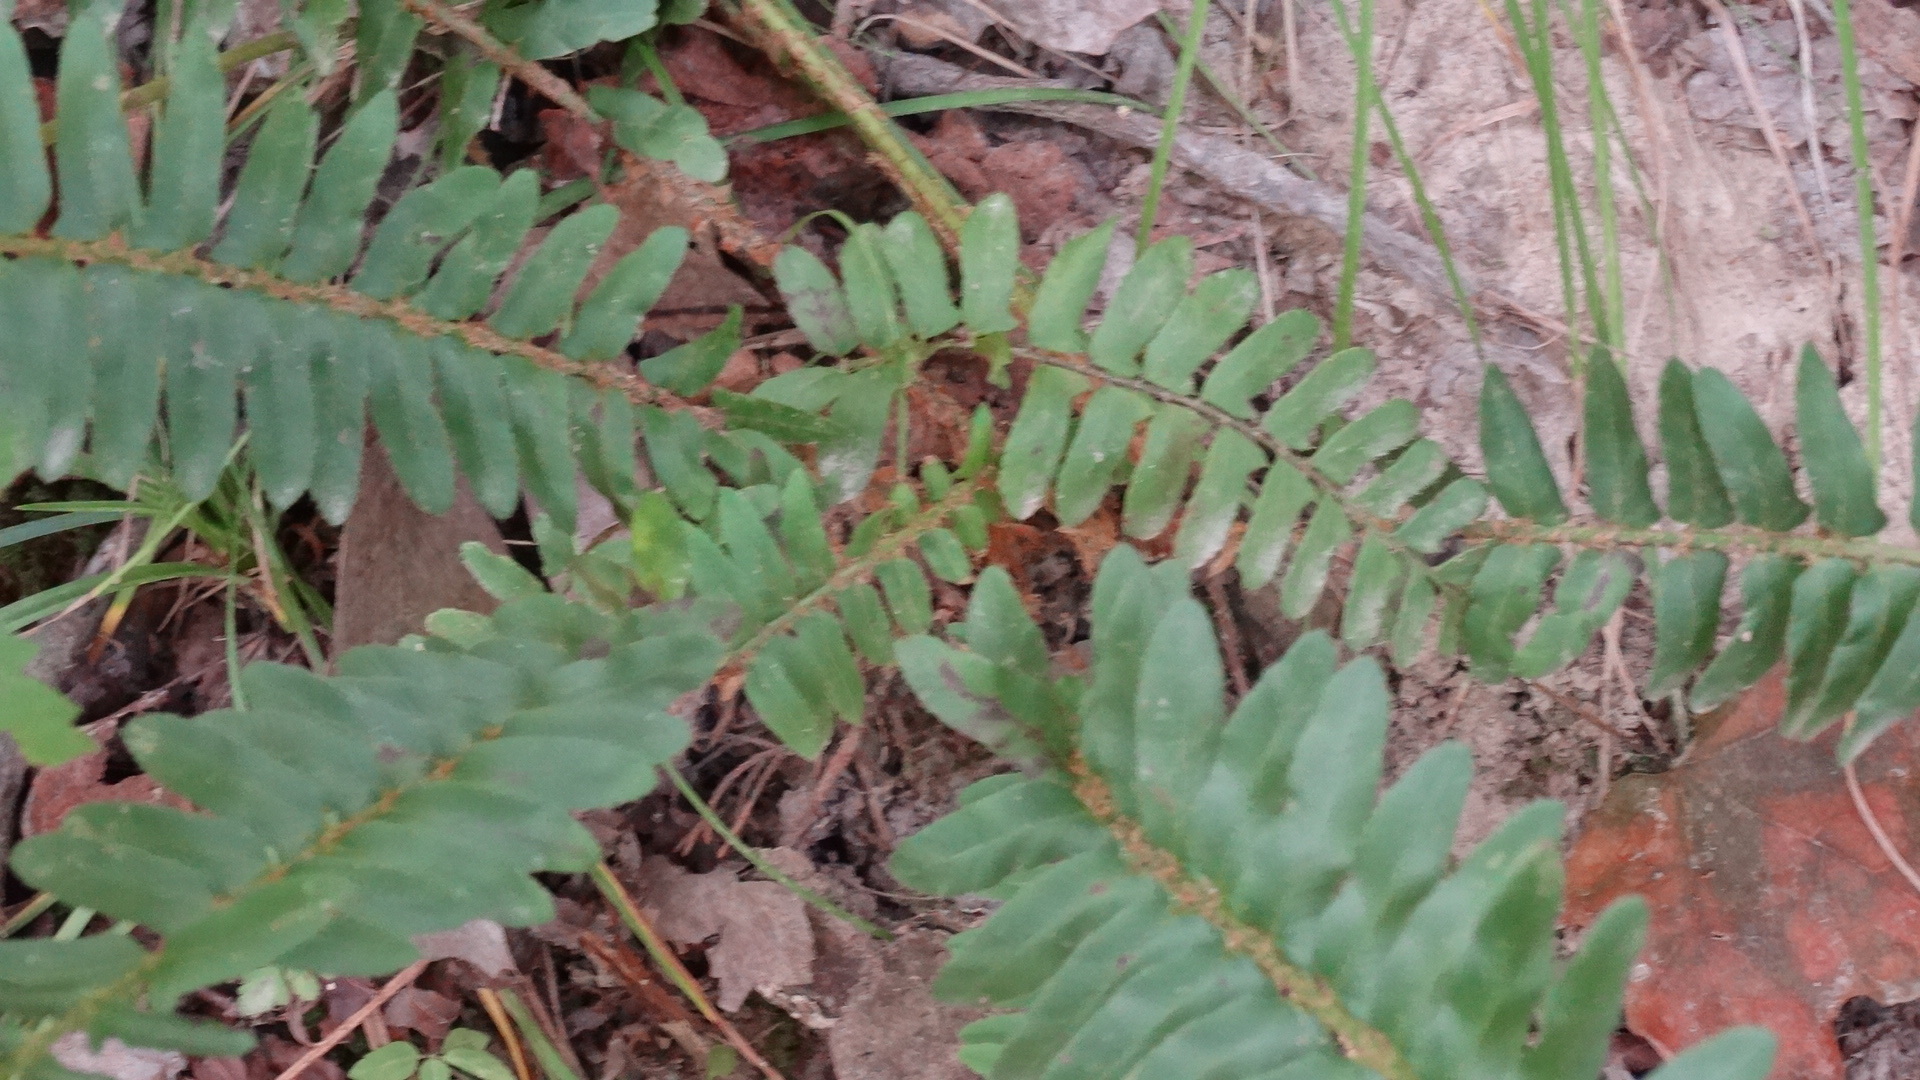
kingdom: Plantae
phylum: Tracheophyta
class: Polypodiopsida
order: Polypodiales
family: Dryopteridaceae
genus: Polystichum
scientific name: Polystichum acrostichoides
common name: Christmas fern
